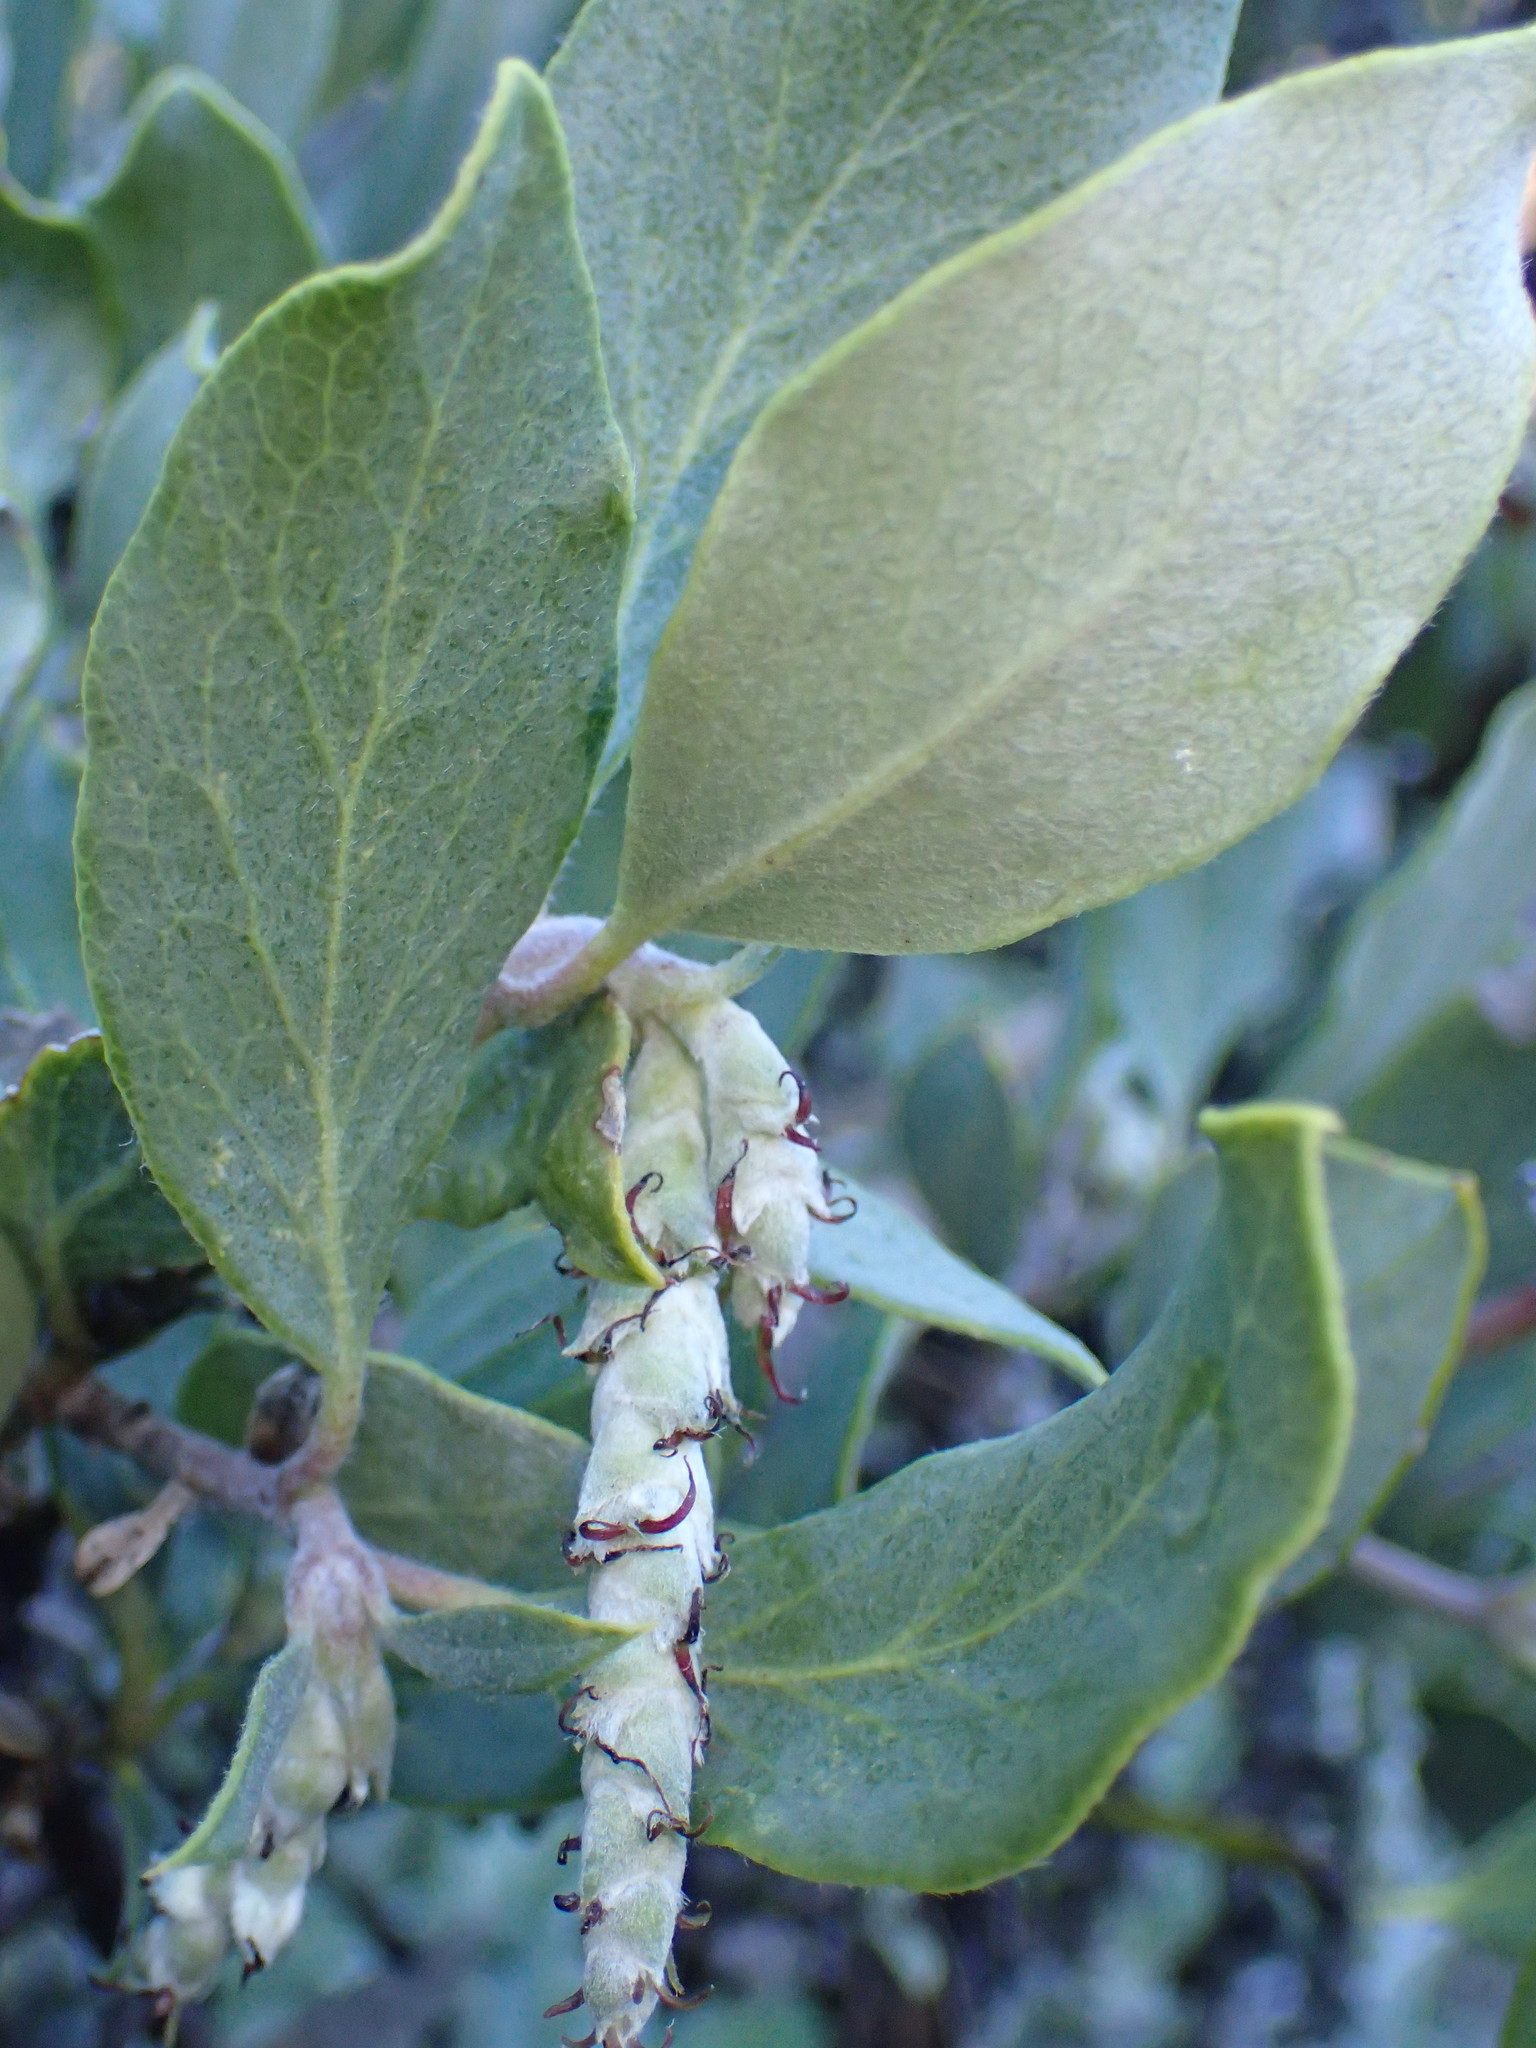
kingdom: Plantae
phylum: Tracheophyta
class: Magnoliopsida
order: Garryales
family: Garryaceae
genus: Garrya
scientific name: Garrya veatchii
